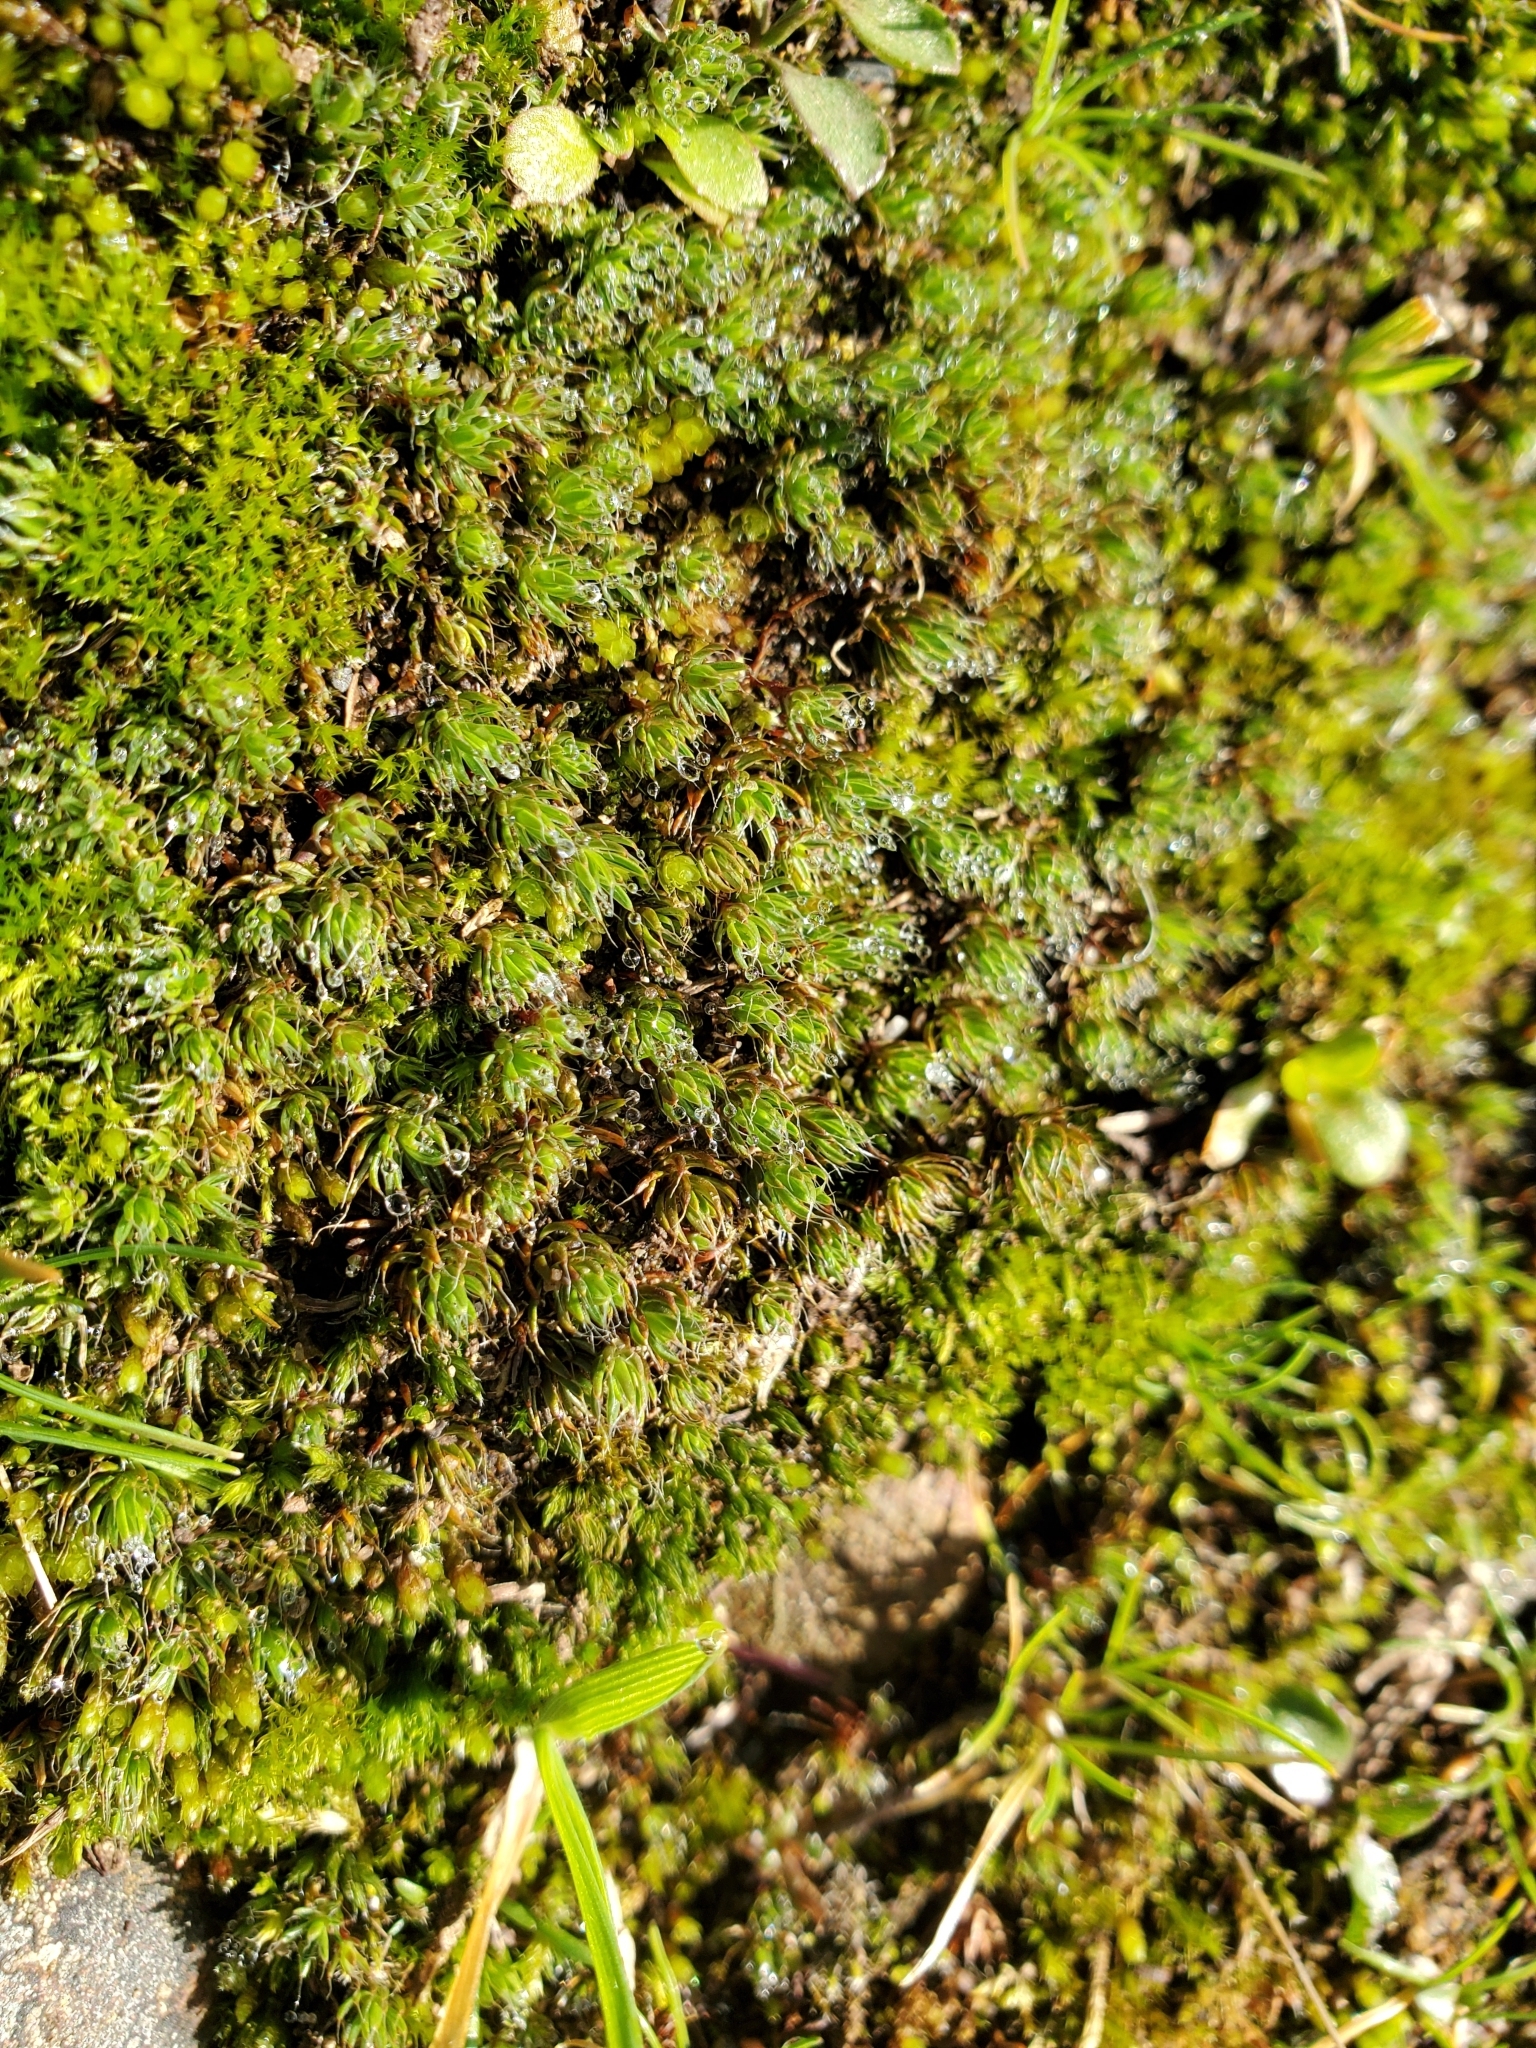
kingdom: Plantae
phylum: Bryophyta
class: Polytrichopsida
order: Polytrichales
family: Polytrichaceae
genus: Polytrichum
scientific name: Polytrichum piliferum
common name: Bristly haircap
